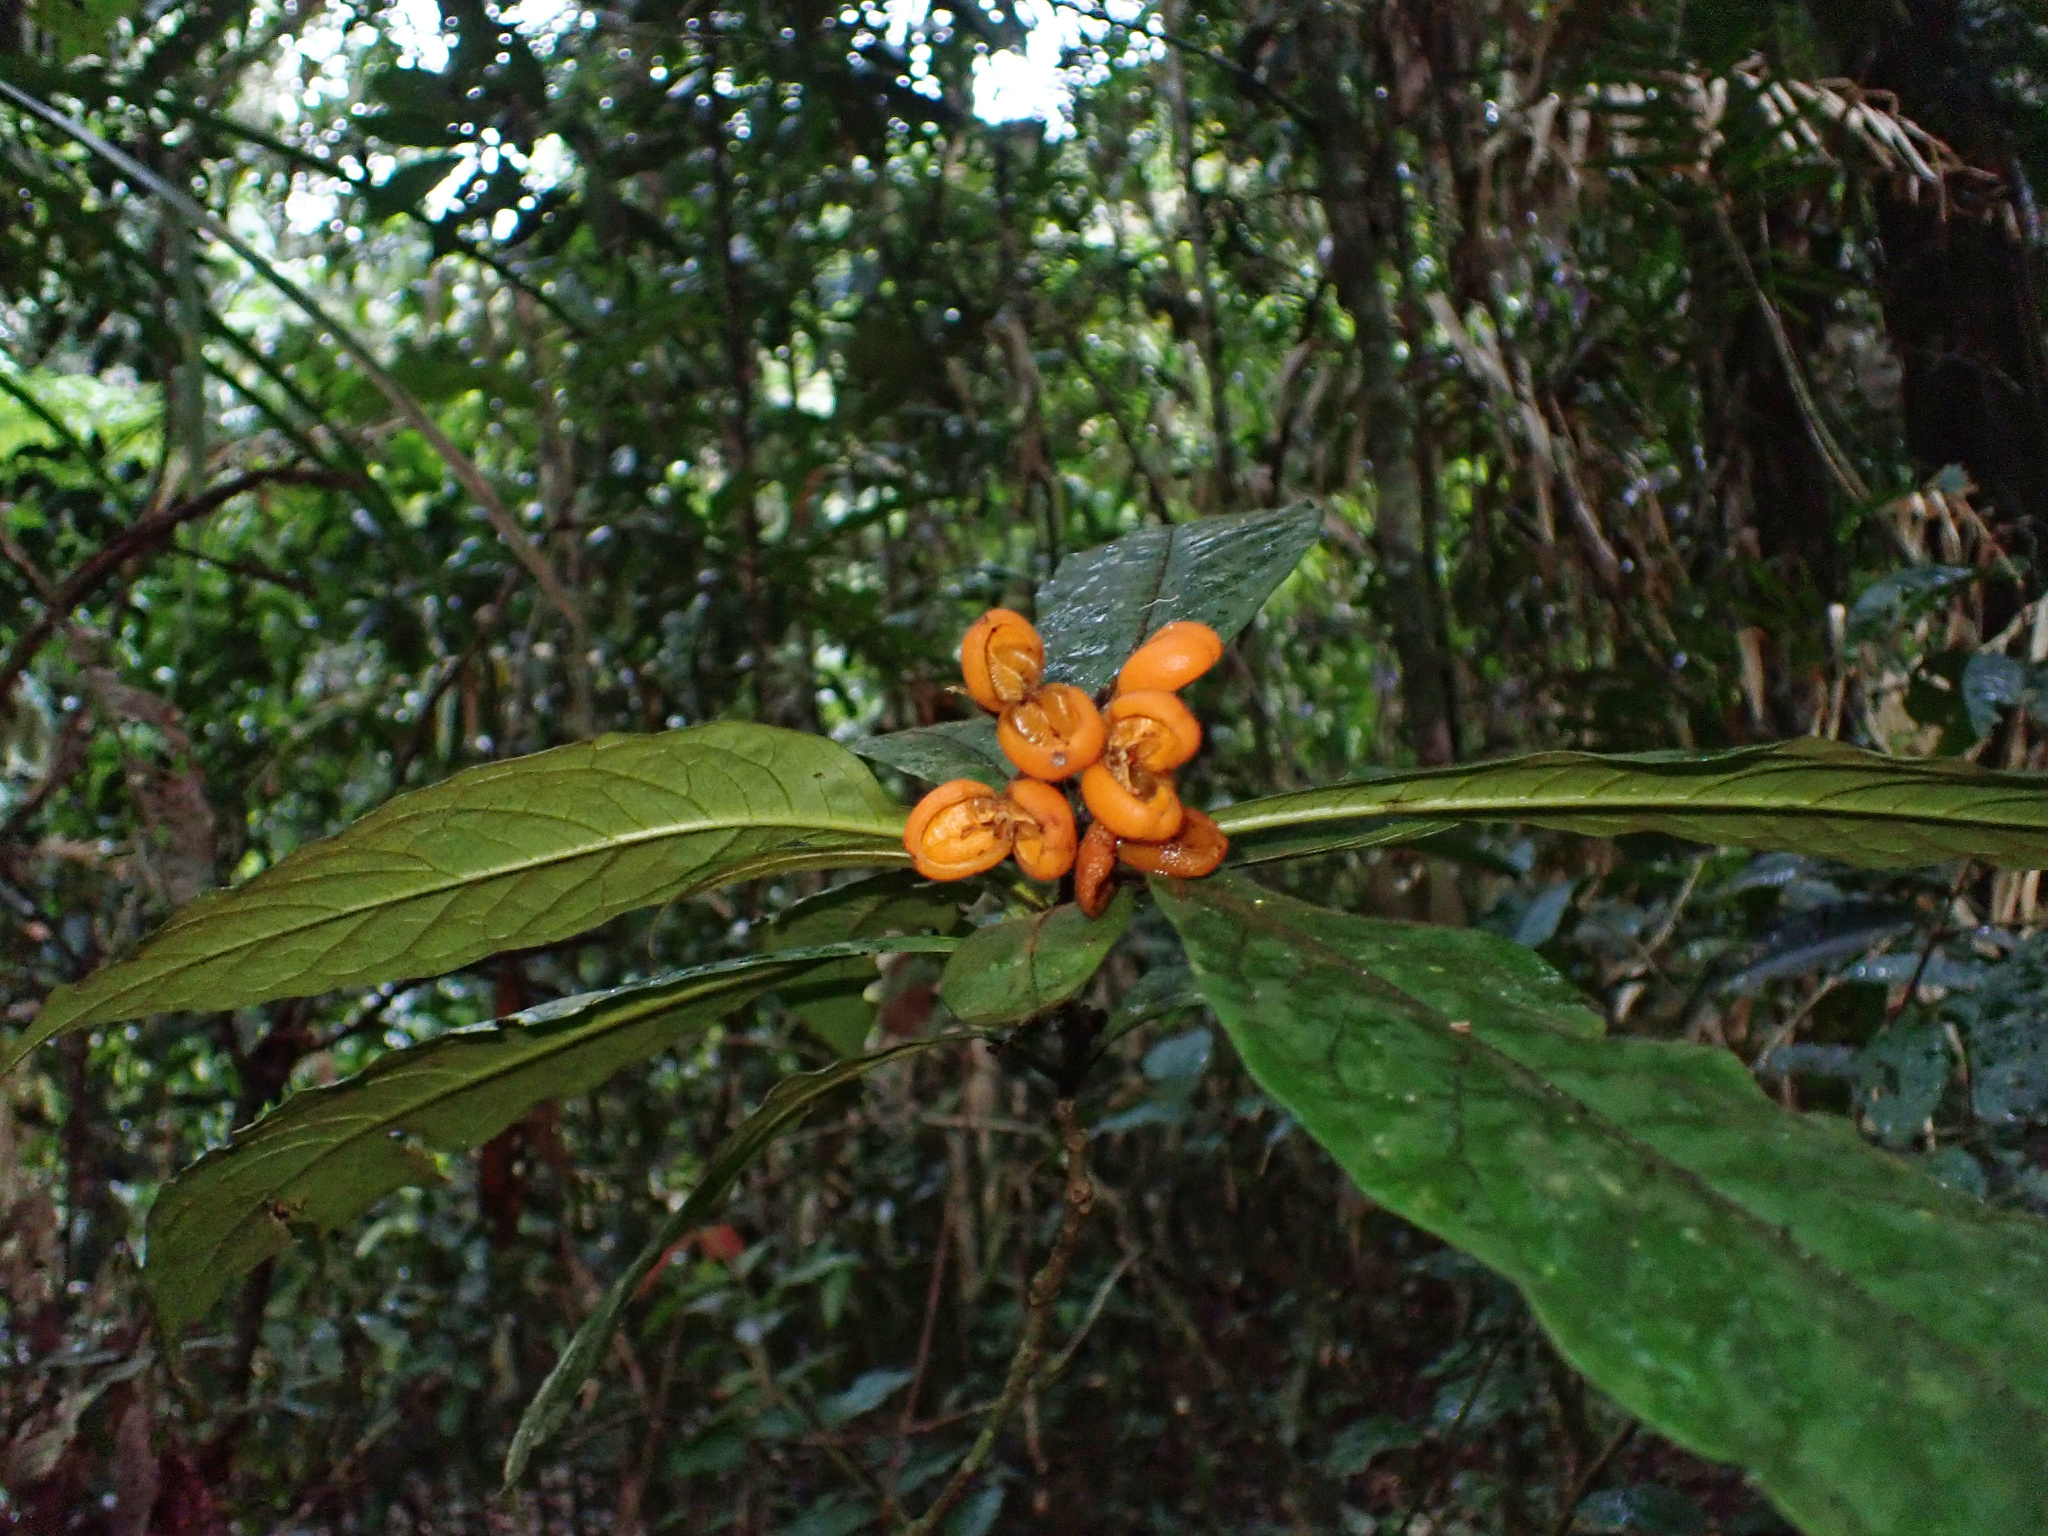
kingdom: Plantae
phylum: Tracheophyta
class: Magnoliopsida
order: Apiales
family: Pittosporaceae
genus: Pittosporum
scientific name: Pittosporum rubiginosum
